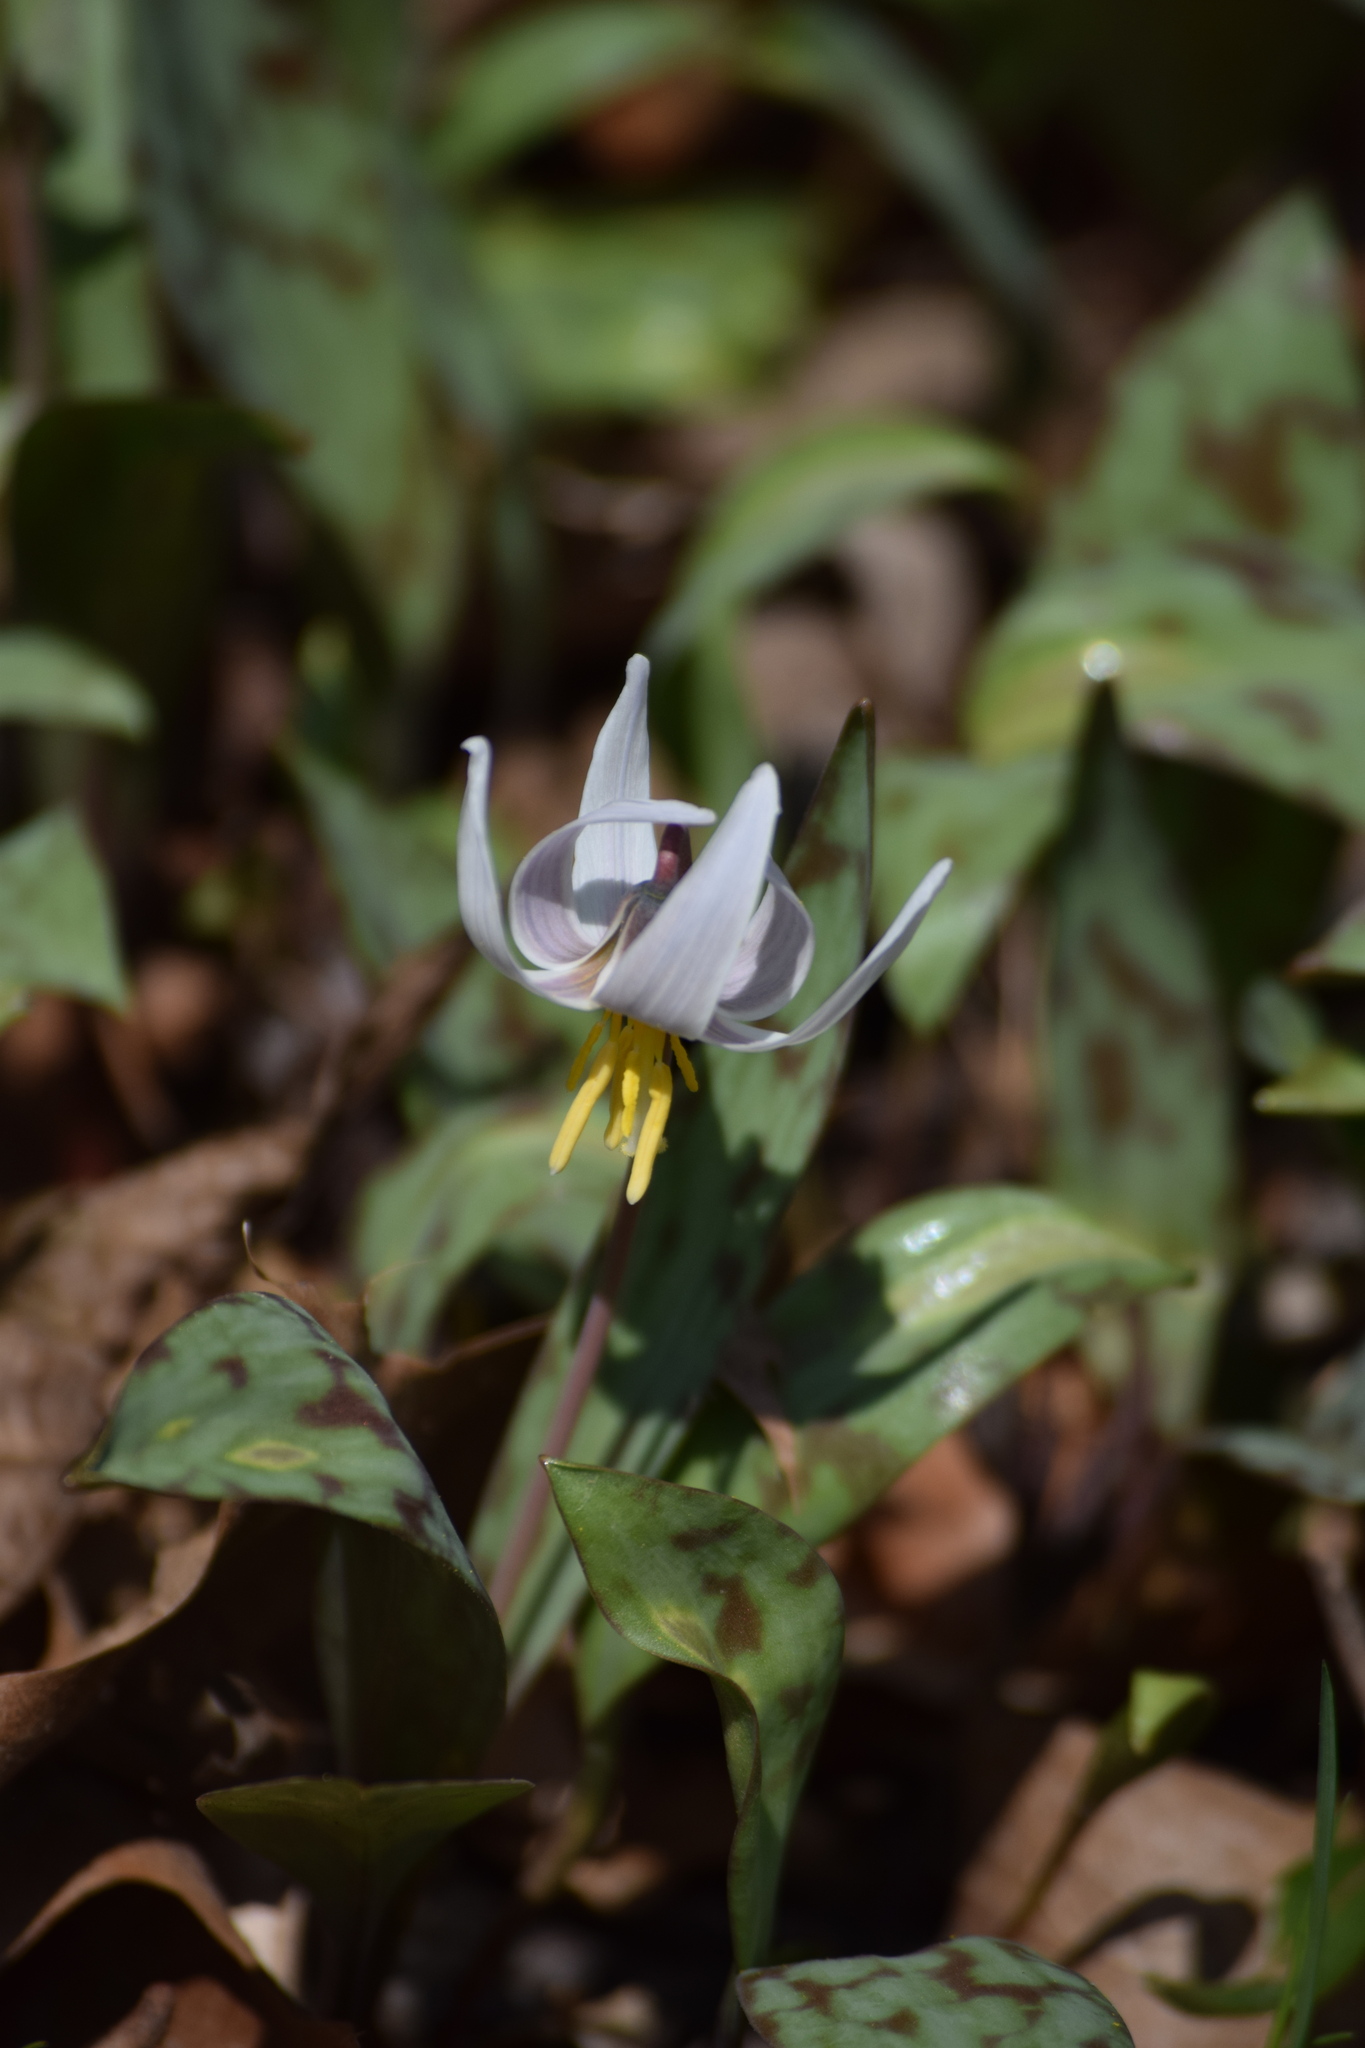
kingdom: Plantae
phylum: Tracheophyta
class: Liliopsida
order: Liliales
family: Liliaceae
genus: Erythronium
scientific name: Erythronium albidum
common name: White trout-lily
